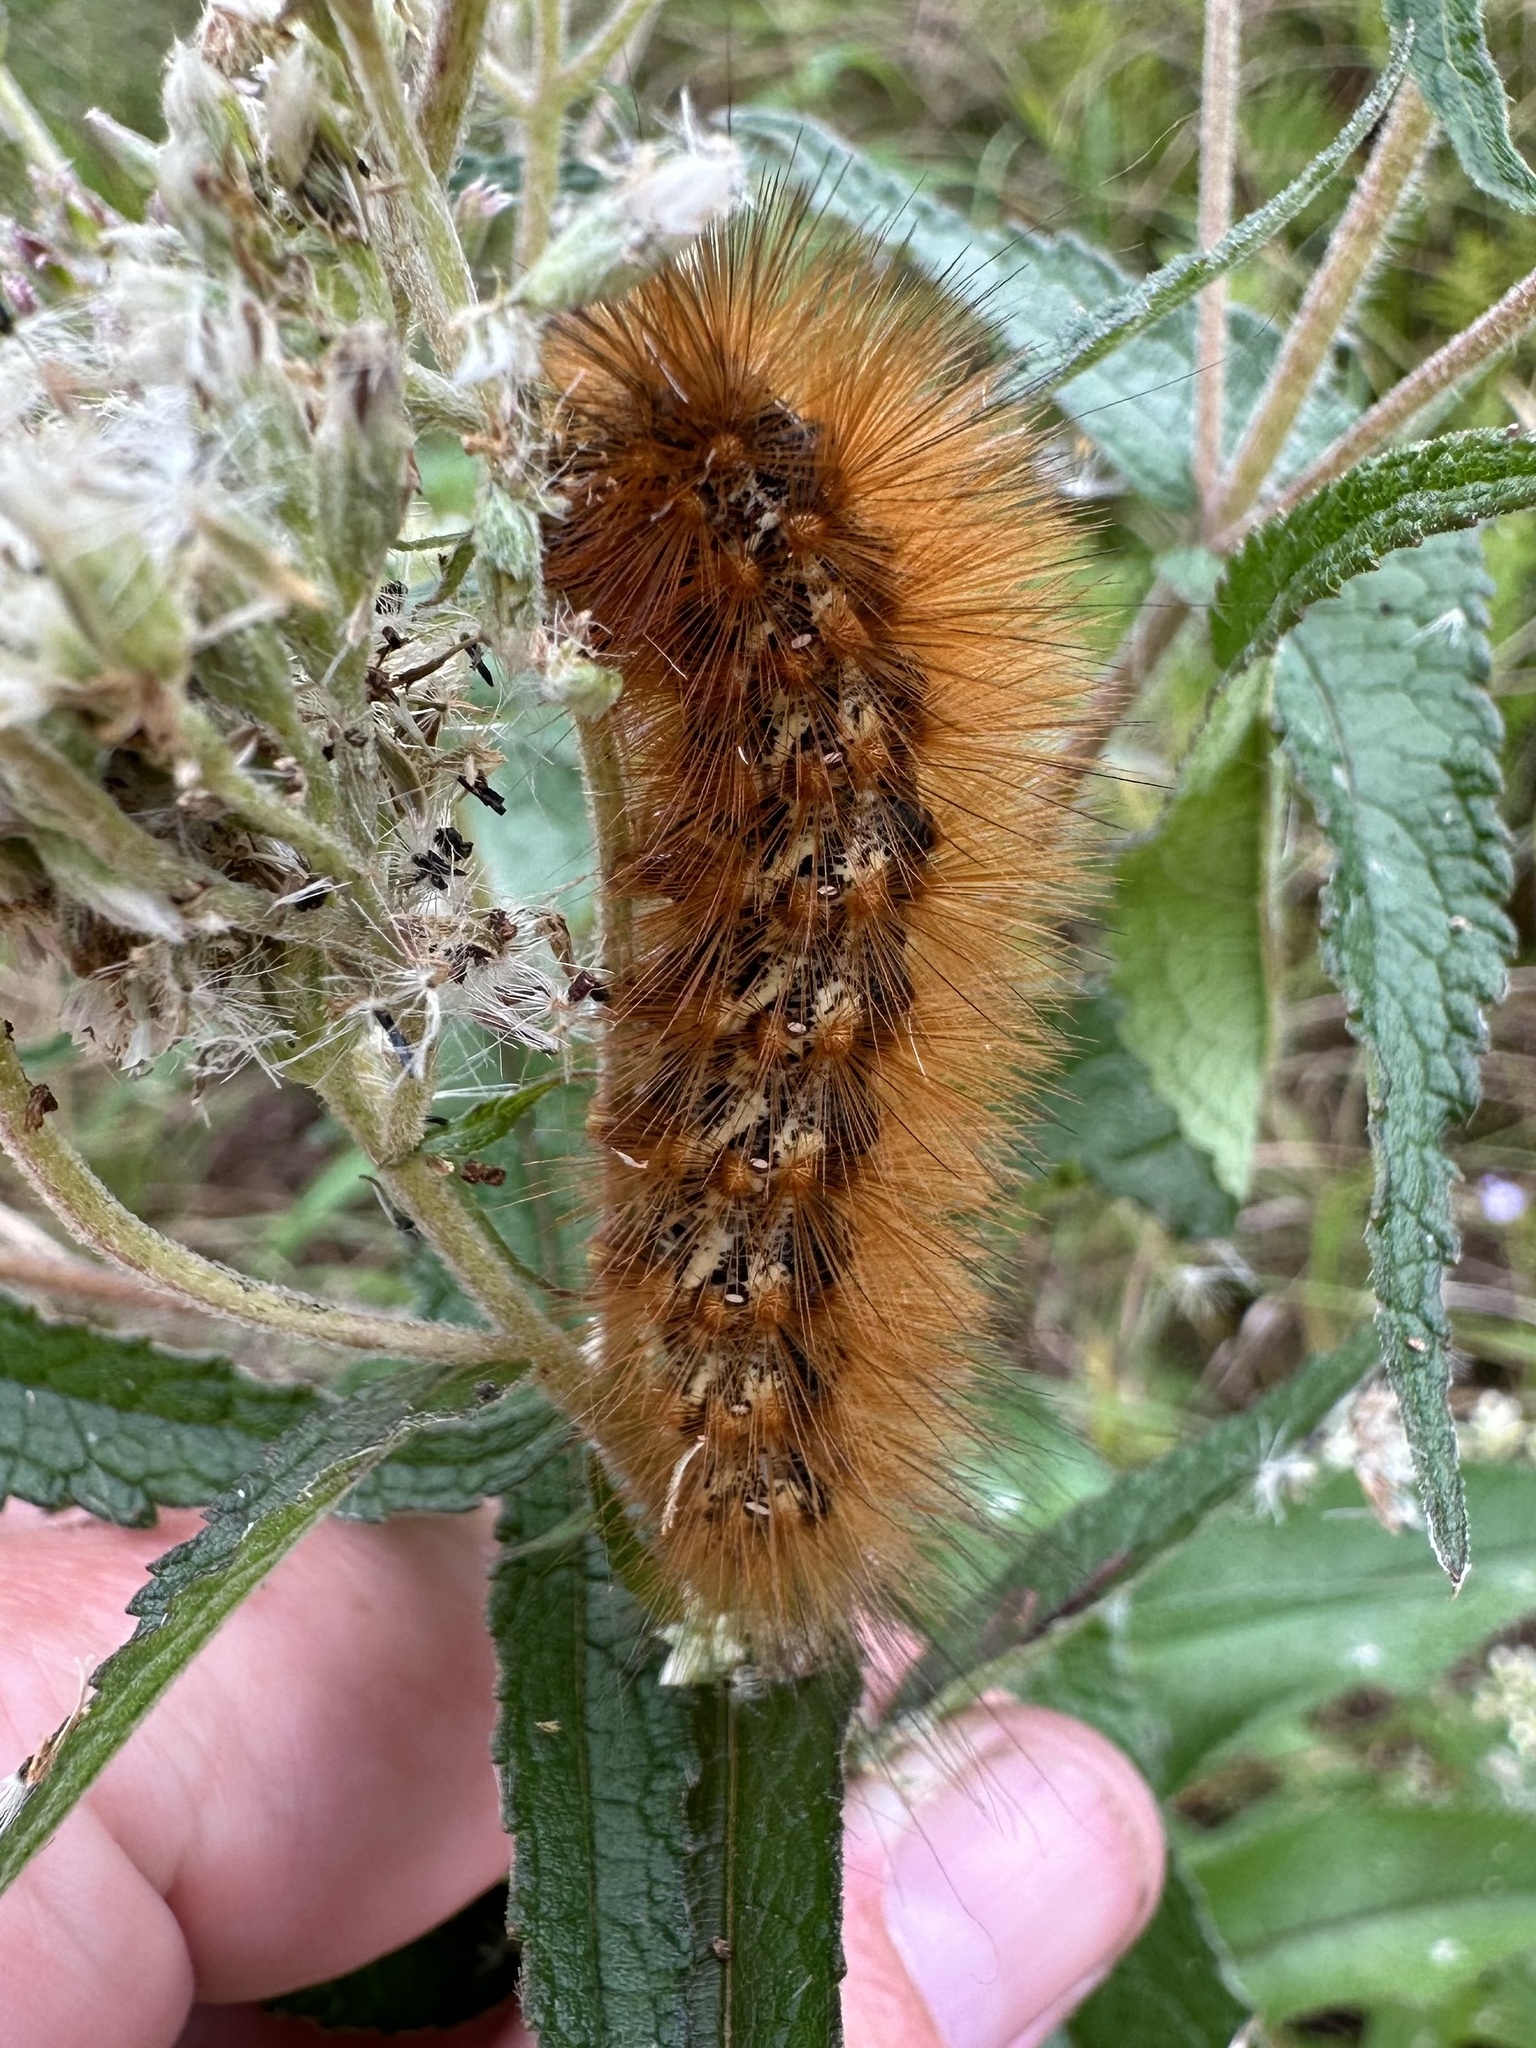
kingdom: Animalia
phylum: Arthropoda
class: Insecta
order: Lepidoptera
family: Erebidae
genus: Estigmene
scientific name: Estigmene acrea
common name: Salt marsh moth
